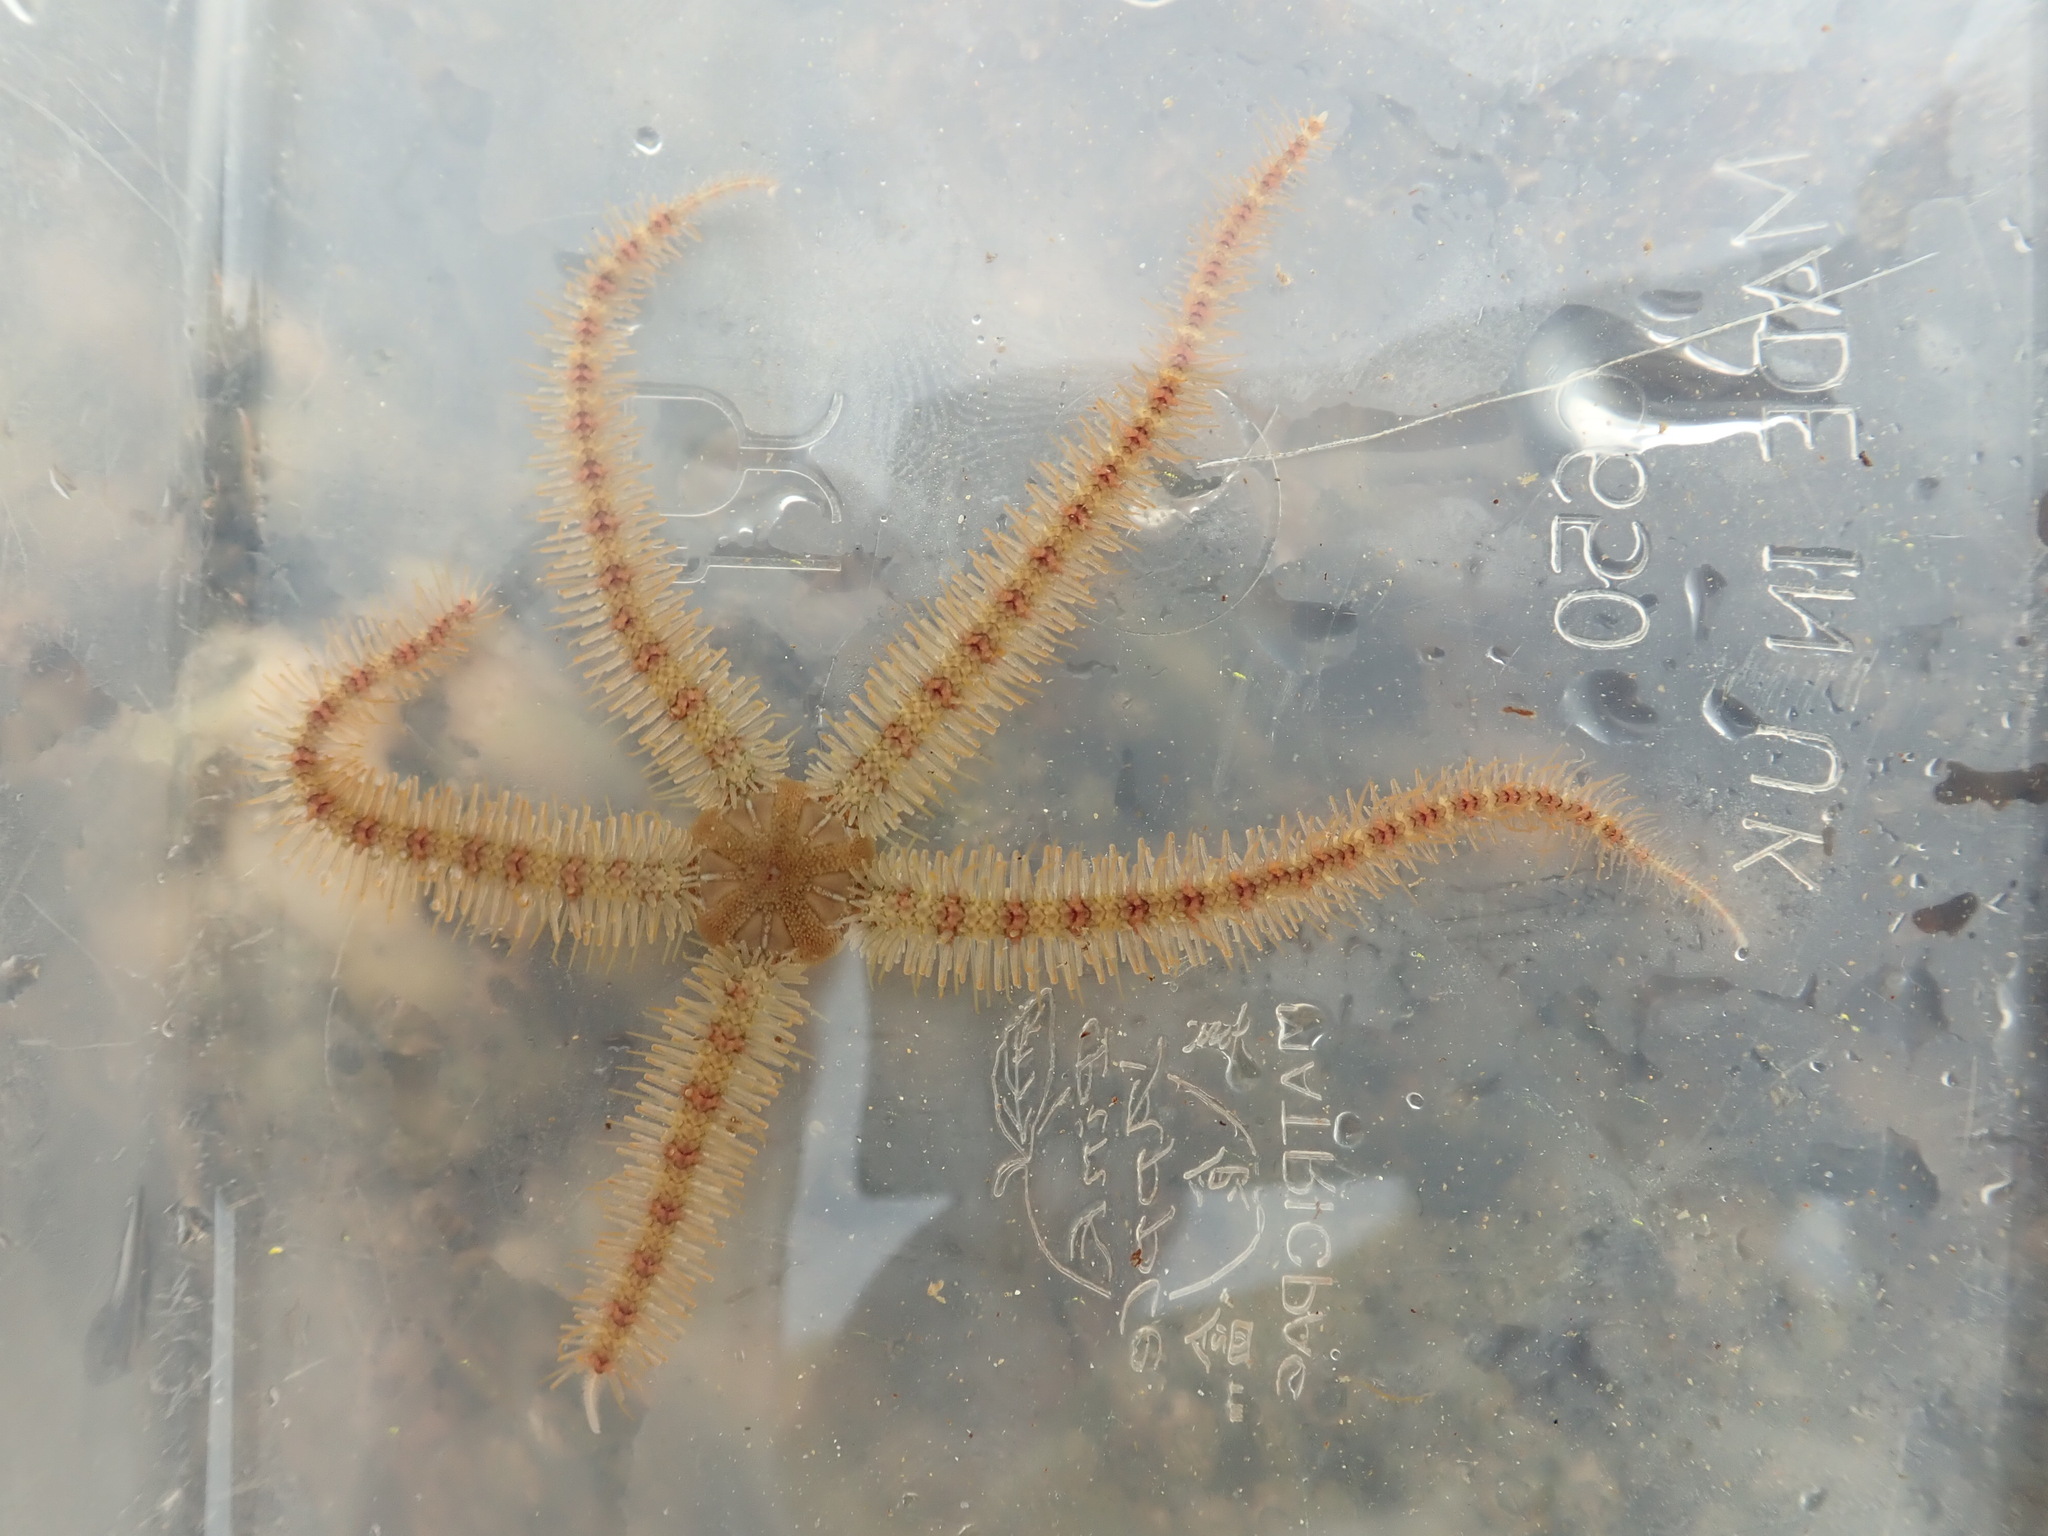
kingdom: Animalia
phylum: Echinodermata
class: Ophiuroidea
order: Amphilepidida
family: Ophiotrichidae
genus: Ophiothrix
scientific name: Ophiothrix fragilis
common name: Common brittlestar
